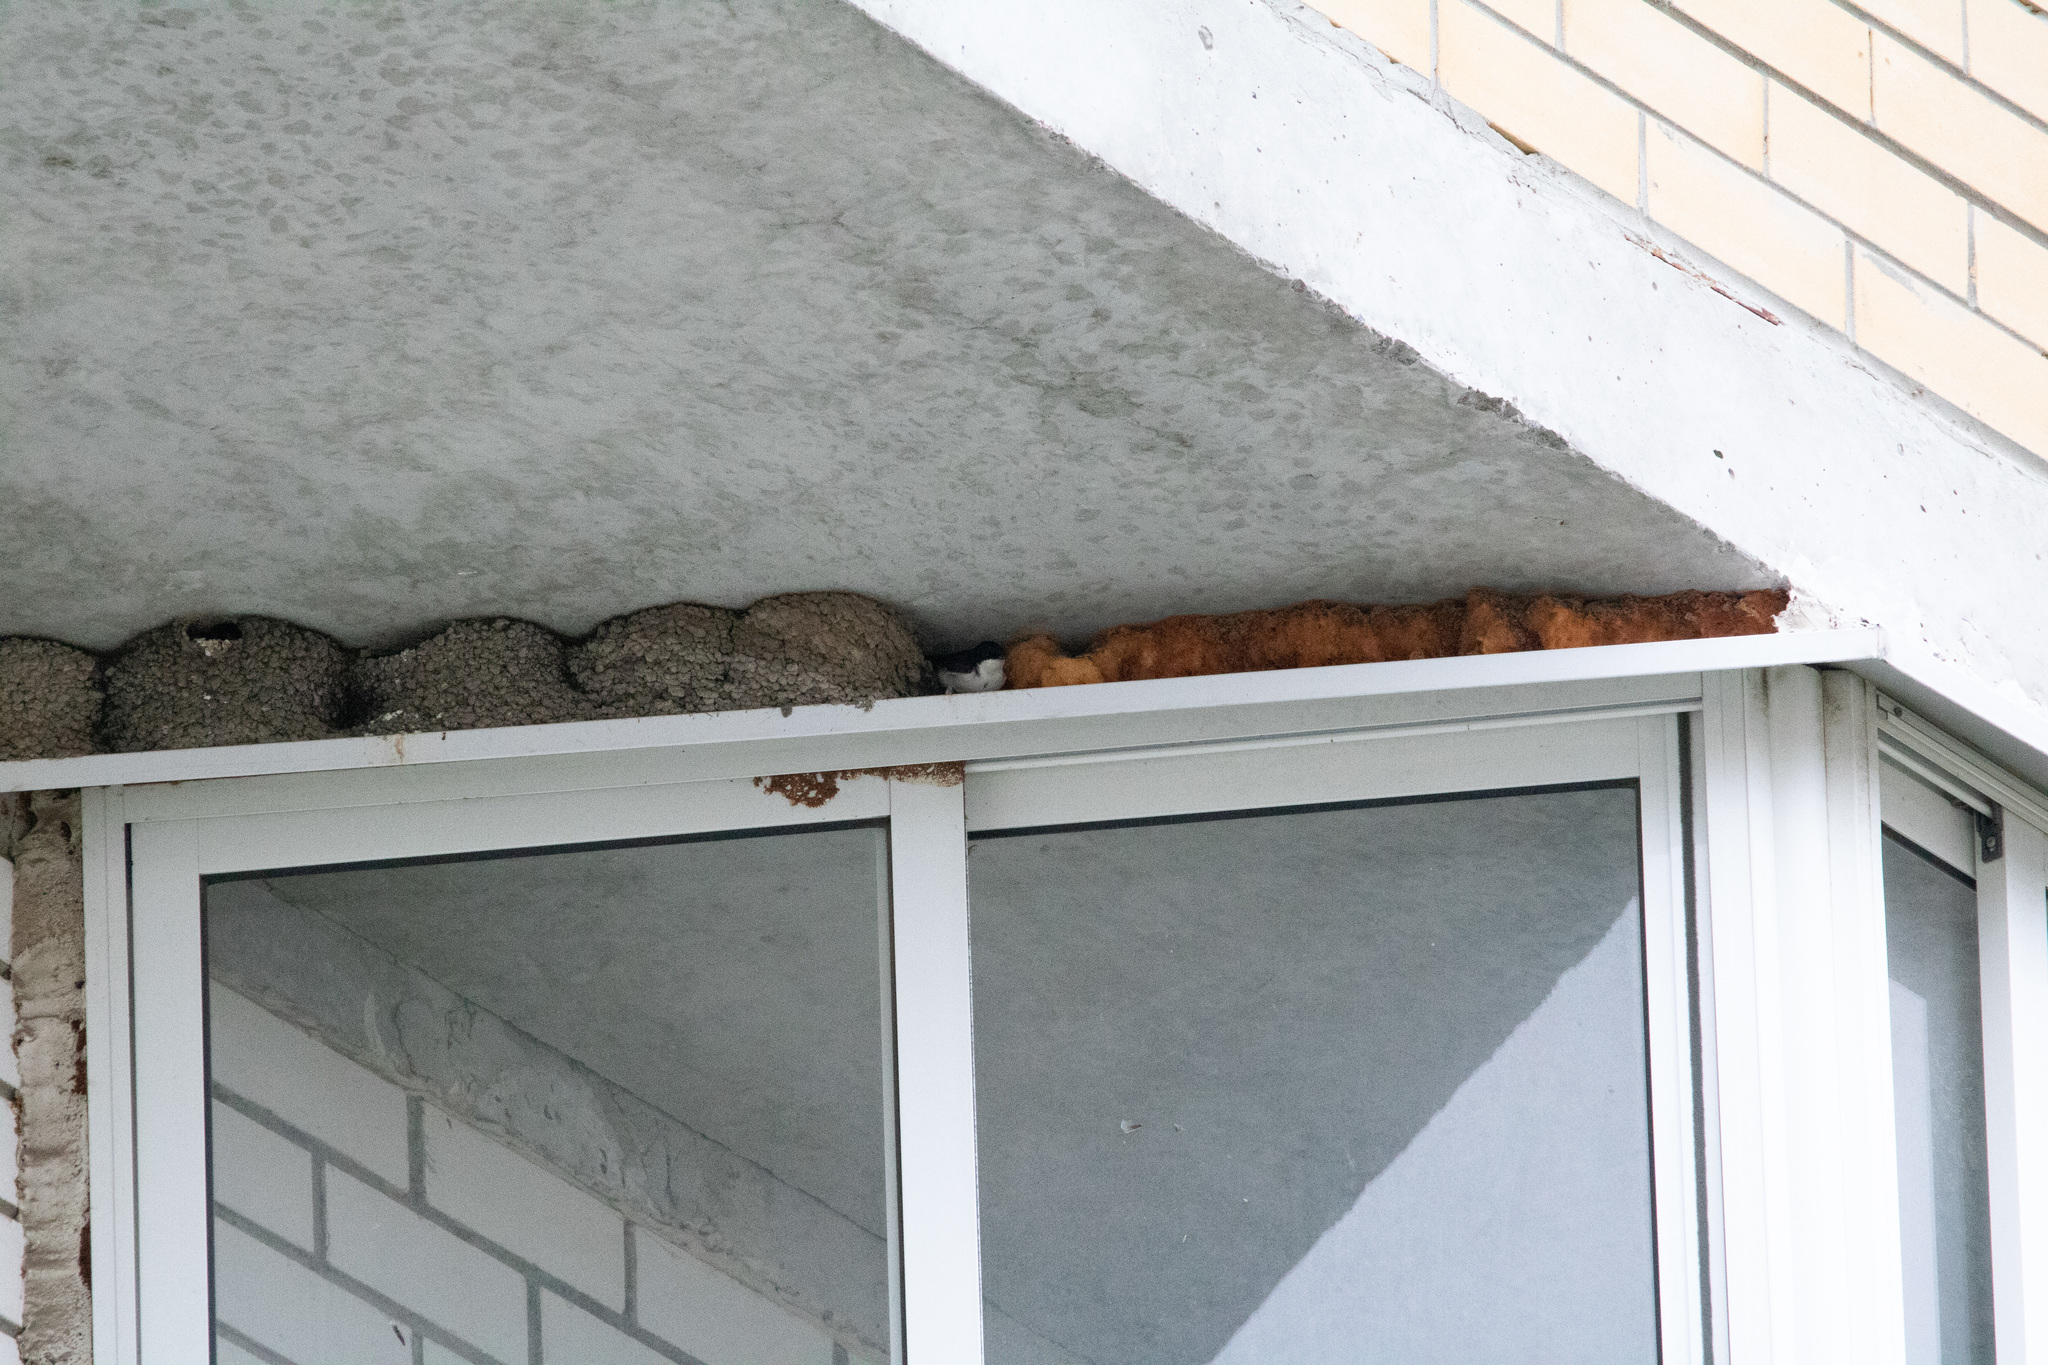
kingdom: Animalia
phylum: Chordata
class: Aves
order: Passeriformes
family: Hirundinidae
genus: Delichon
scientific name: Delichon urbicum
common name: Common house martin
